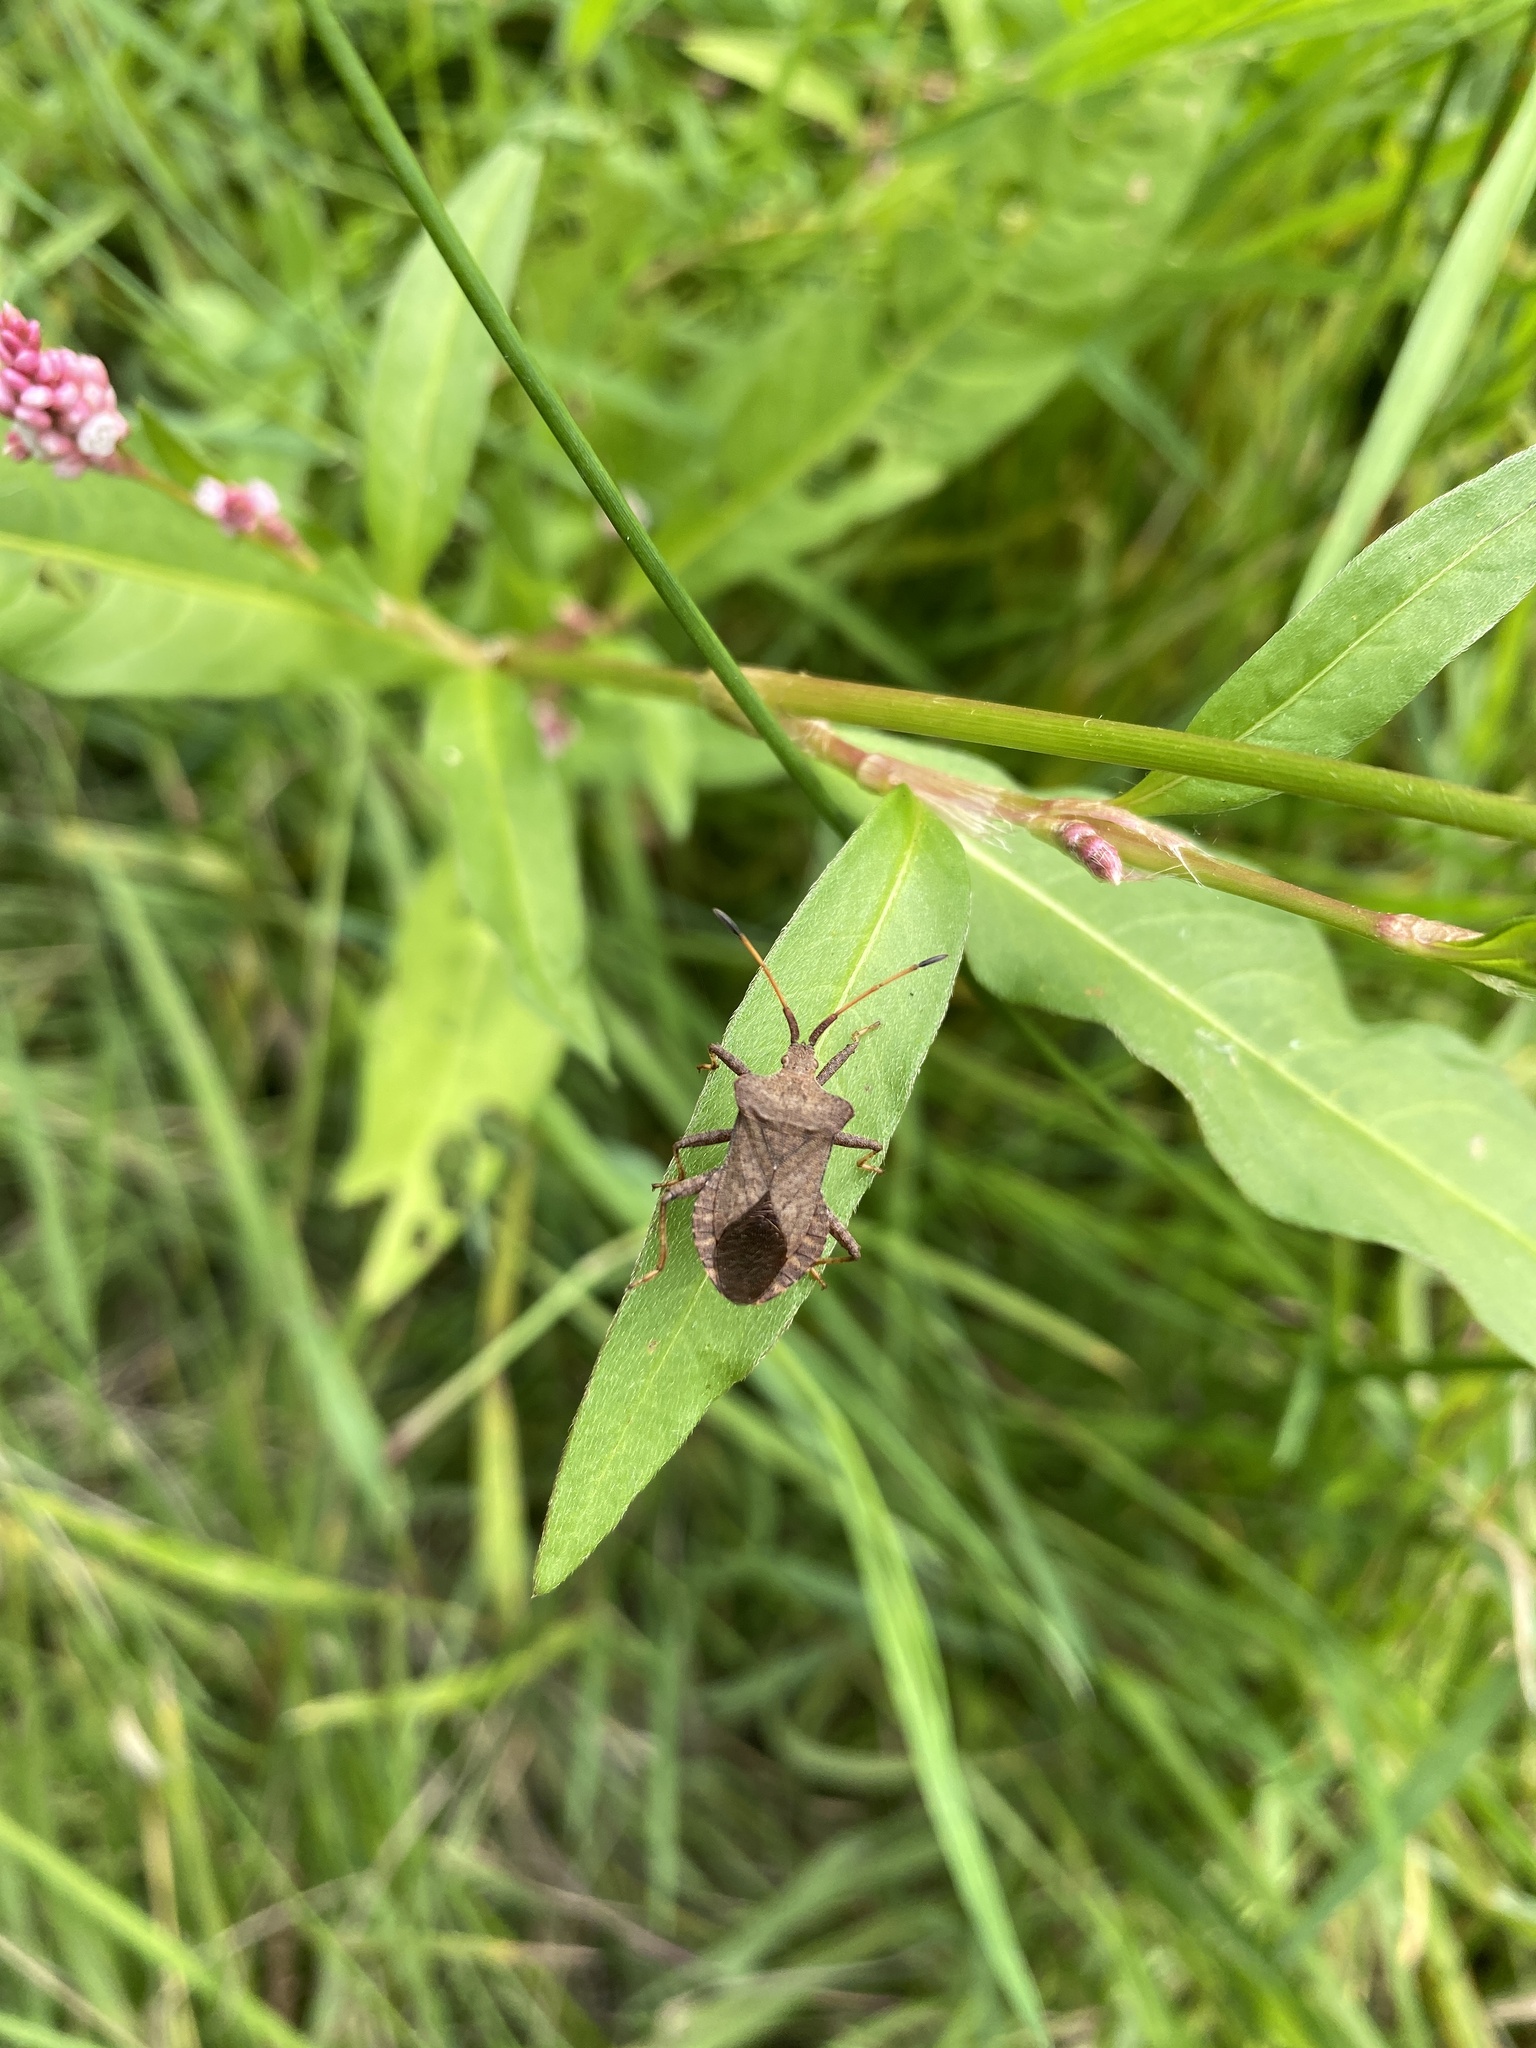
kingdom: Animalia
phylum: Arthropoda
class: Insecta
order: Hemiptera
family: Coreidae
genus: Coreus
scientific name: Coreus marginatus
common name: Dock bug
